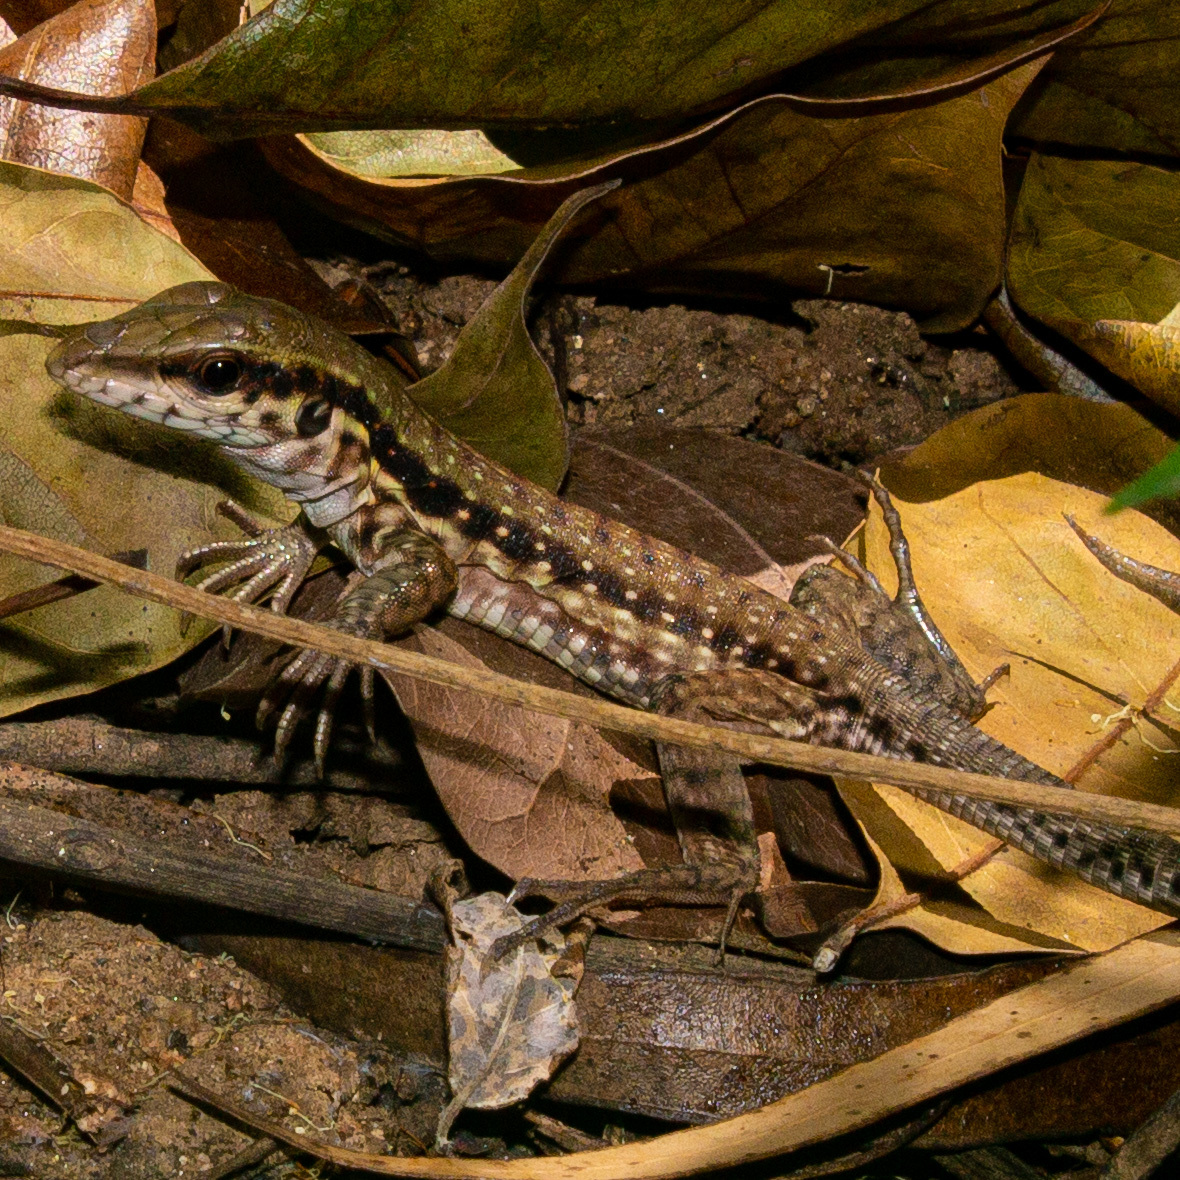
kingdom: Animalia
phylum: Chordata
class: Squamata
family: Teiidae
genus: Ameiva
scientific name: Ameiva praesignis
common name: Giant ameiva
